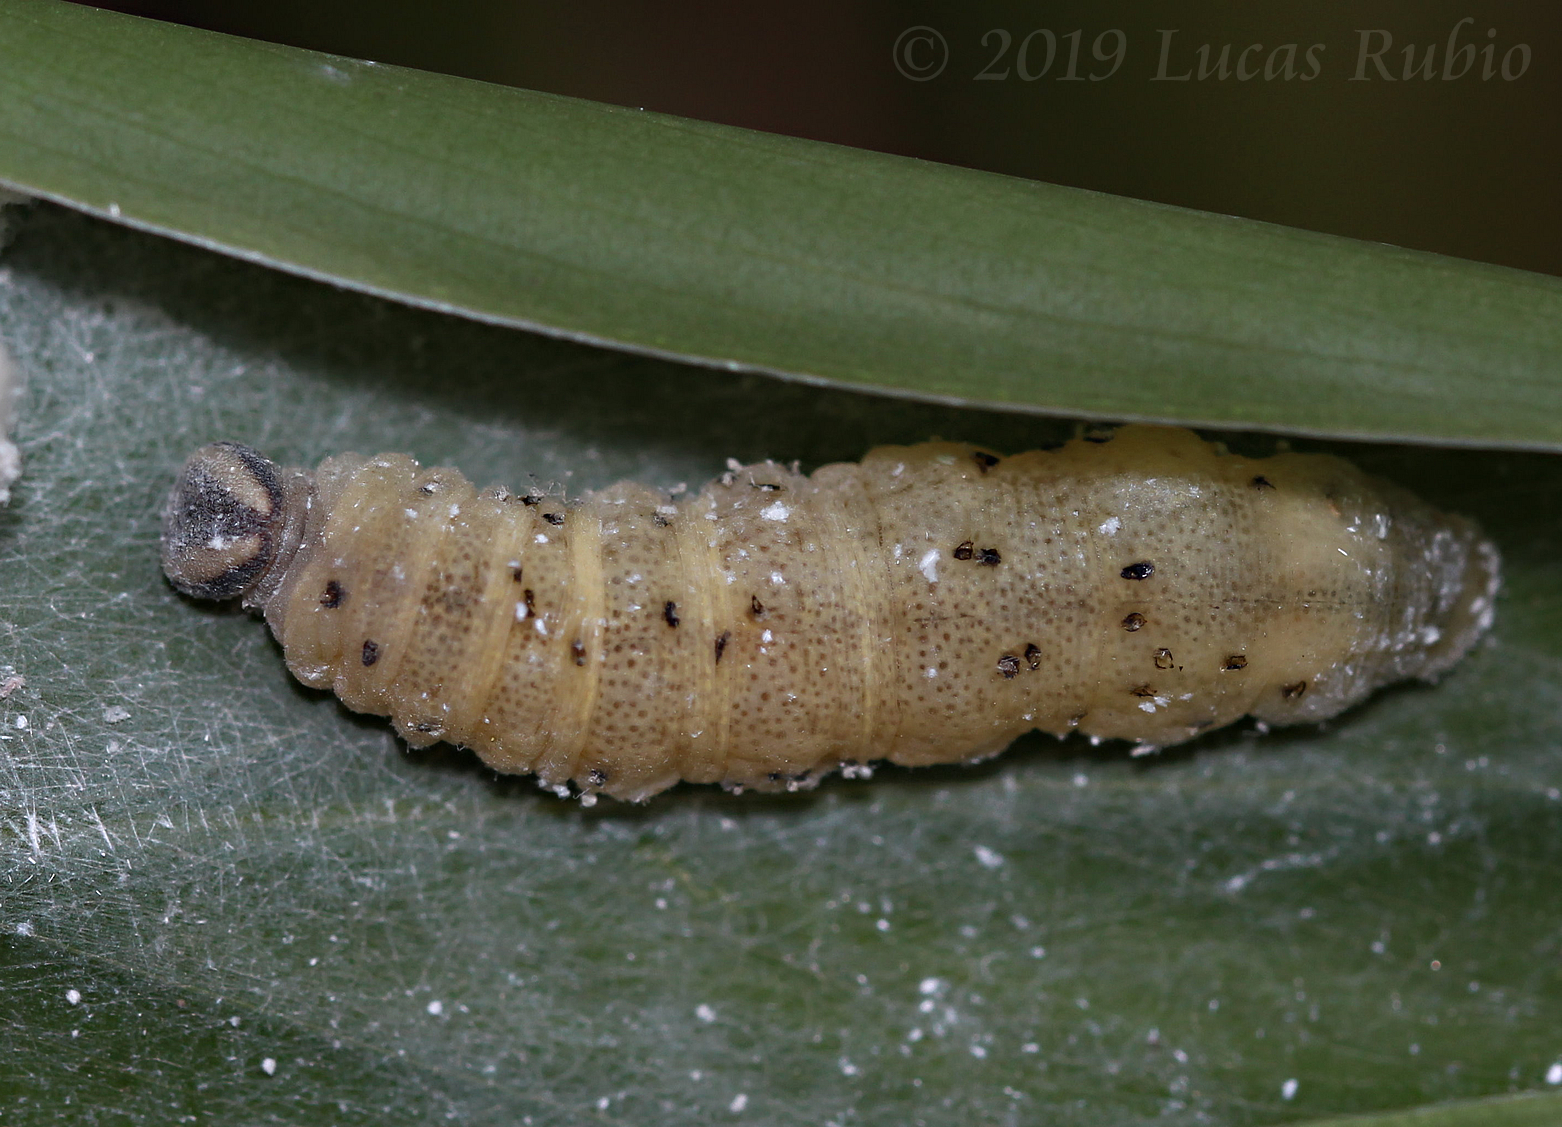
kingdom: Animalia
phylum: Arthropoda
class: Insecta
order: Lepidoptera
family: Hesperiidae
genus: Quinta
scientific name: Quinta cannae
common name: Canna skipper
